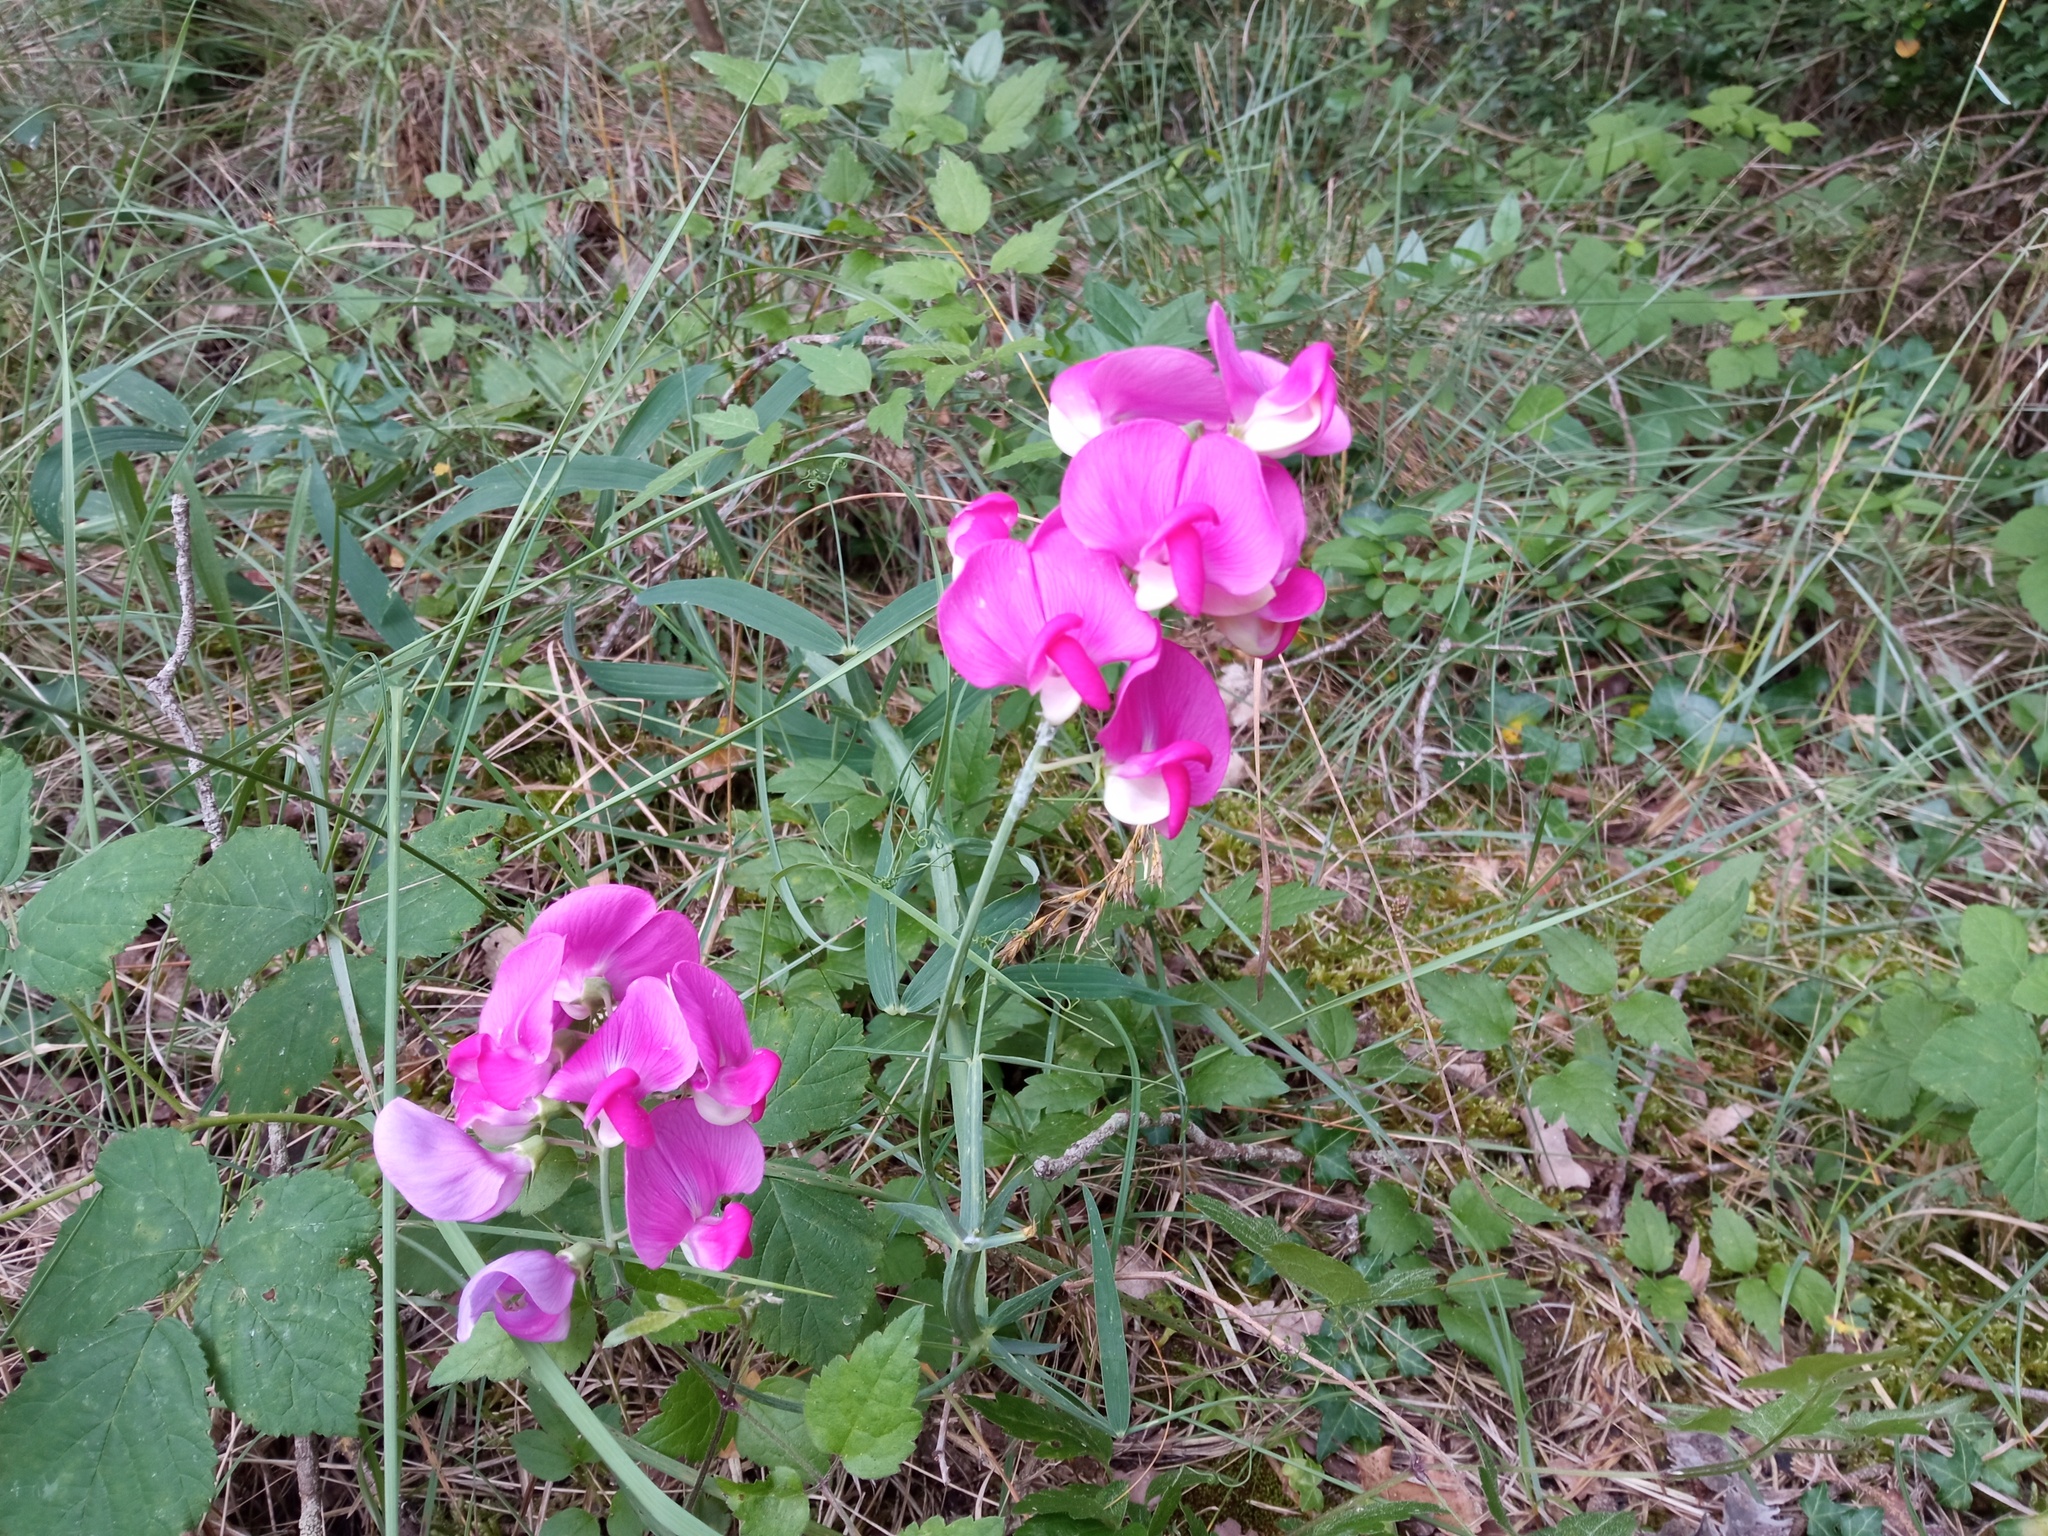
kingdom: Plantae
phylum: Tracheophyta
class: Magnoliopsida
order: Fabales
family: Fabaceae
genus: Lathyrus
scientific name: Lathyrus latifolius
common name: Perennial pea
